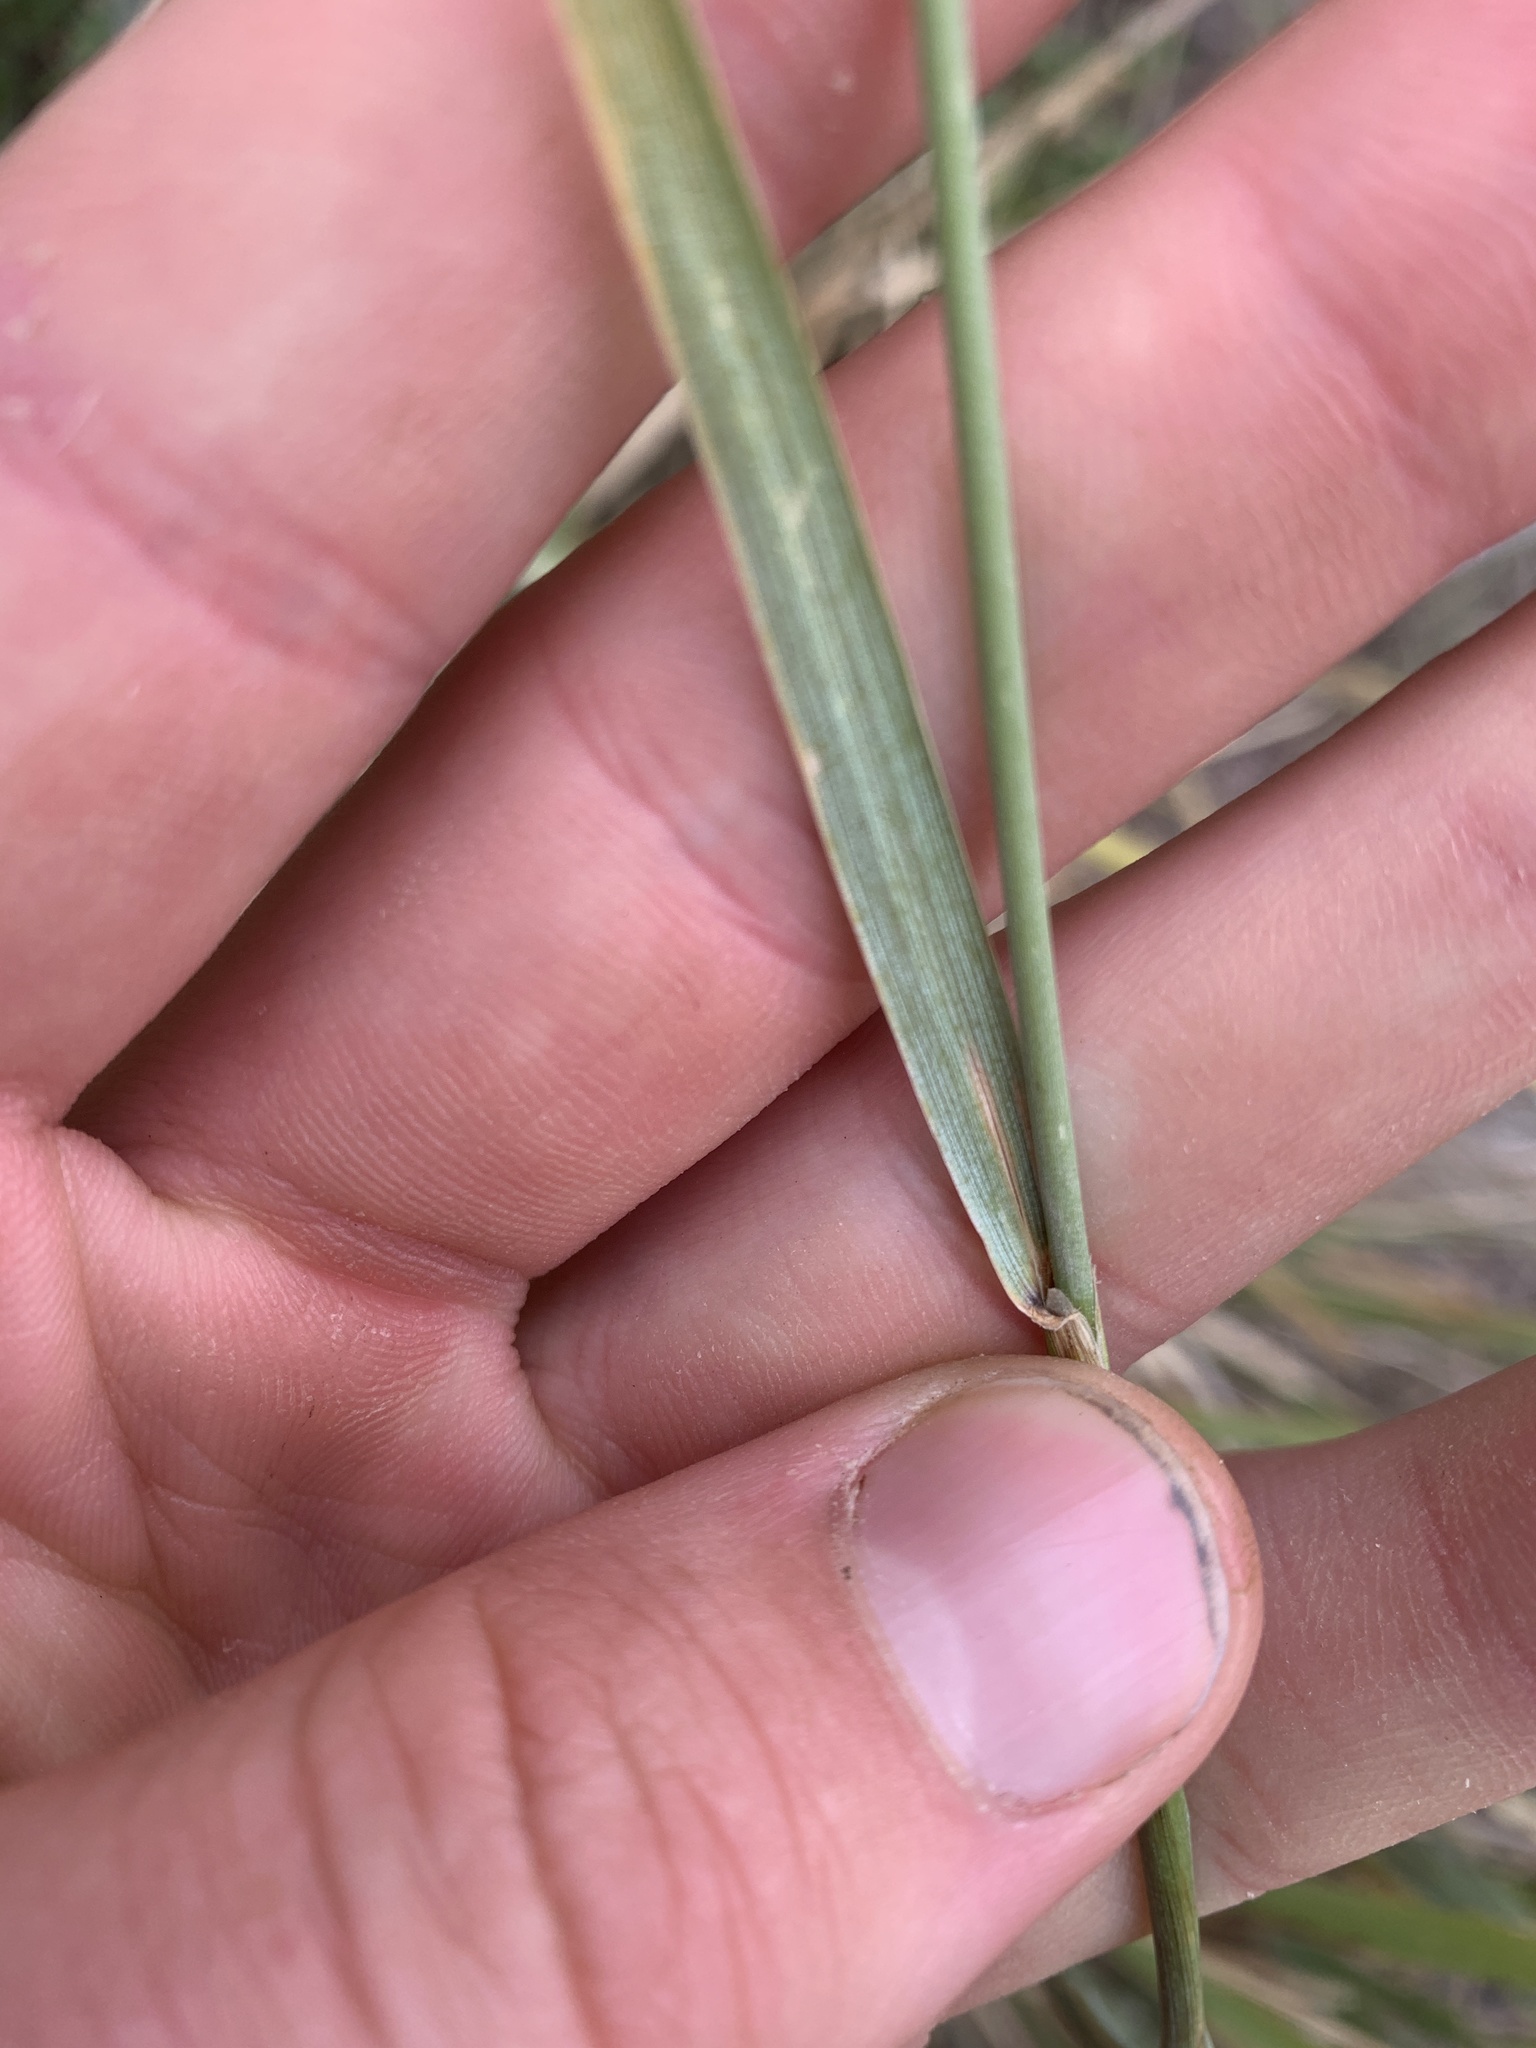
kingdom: Plantae
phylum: Tracheophyta
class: Liliopsida
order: Poales
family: Poaceae
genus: Leymus
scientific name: Leymus cinereus
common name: Basin wild rye
